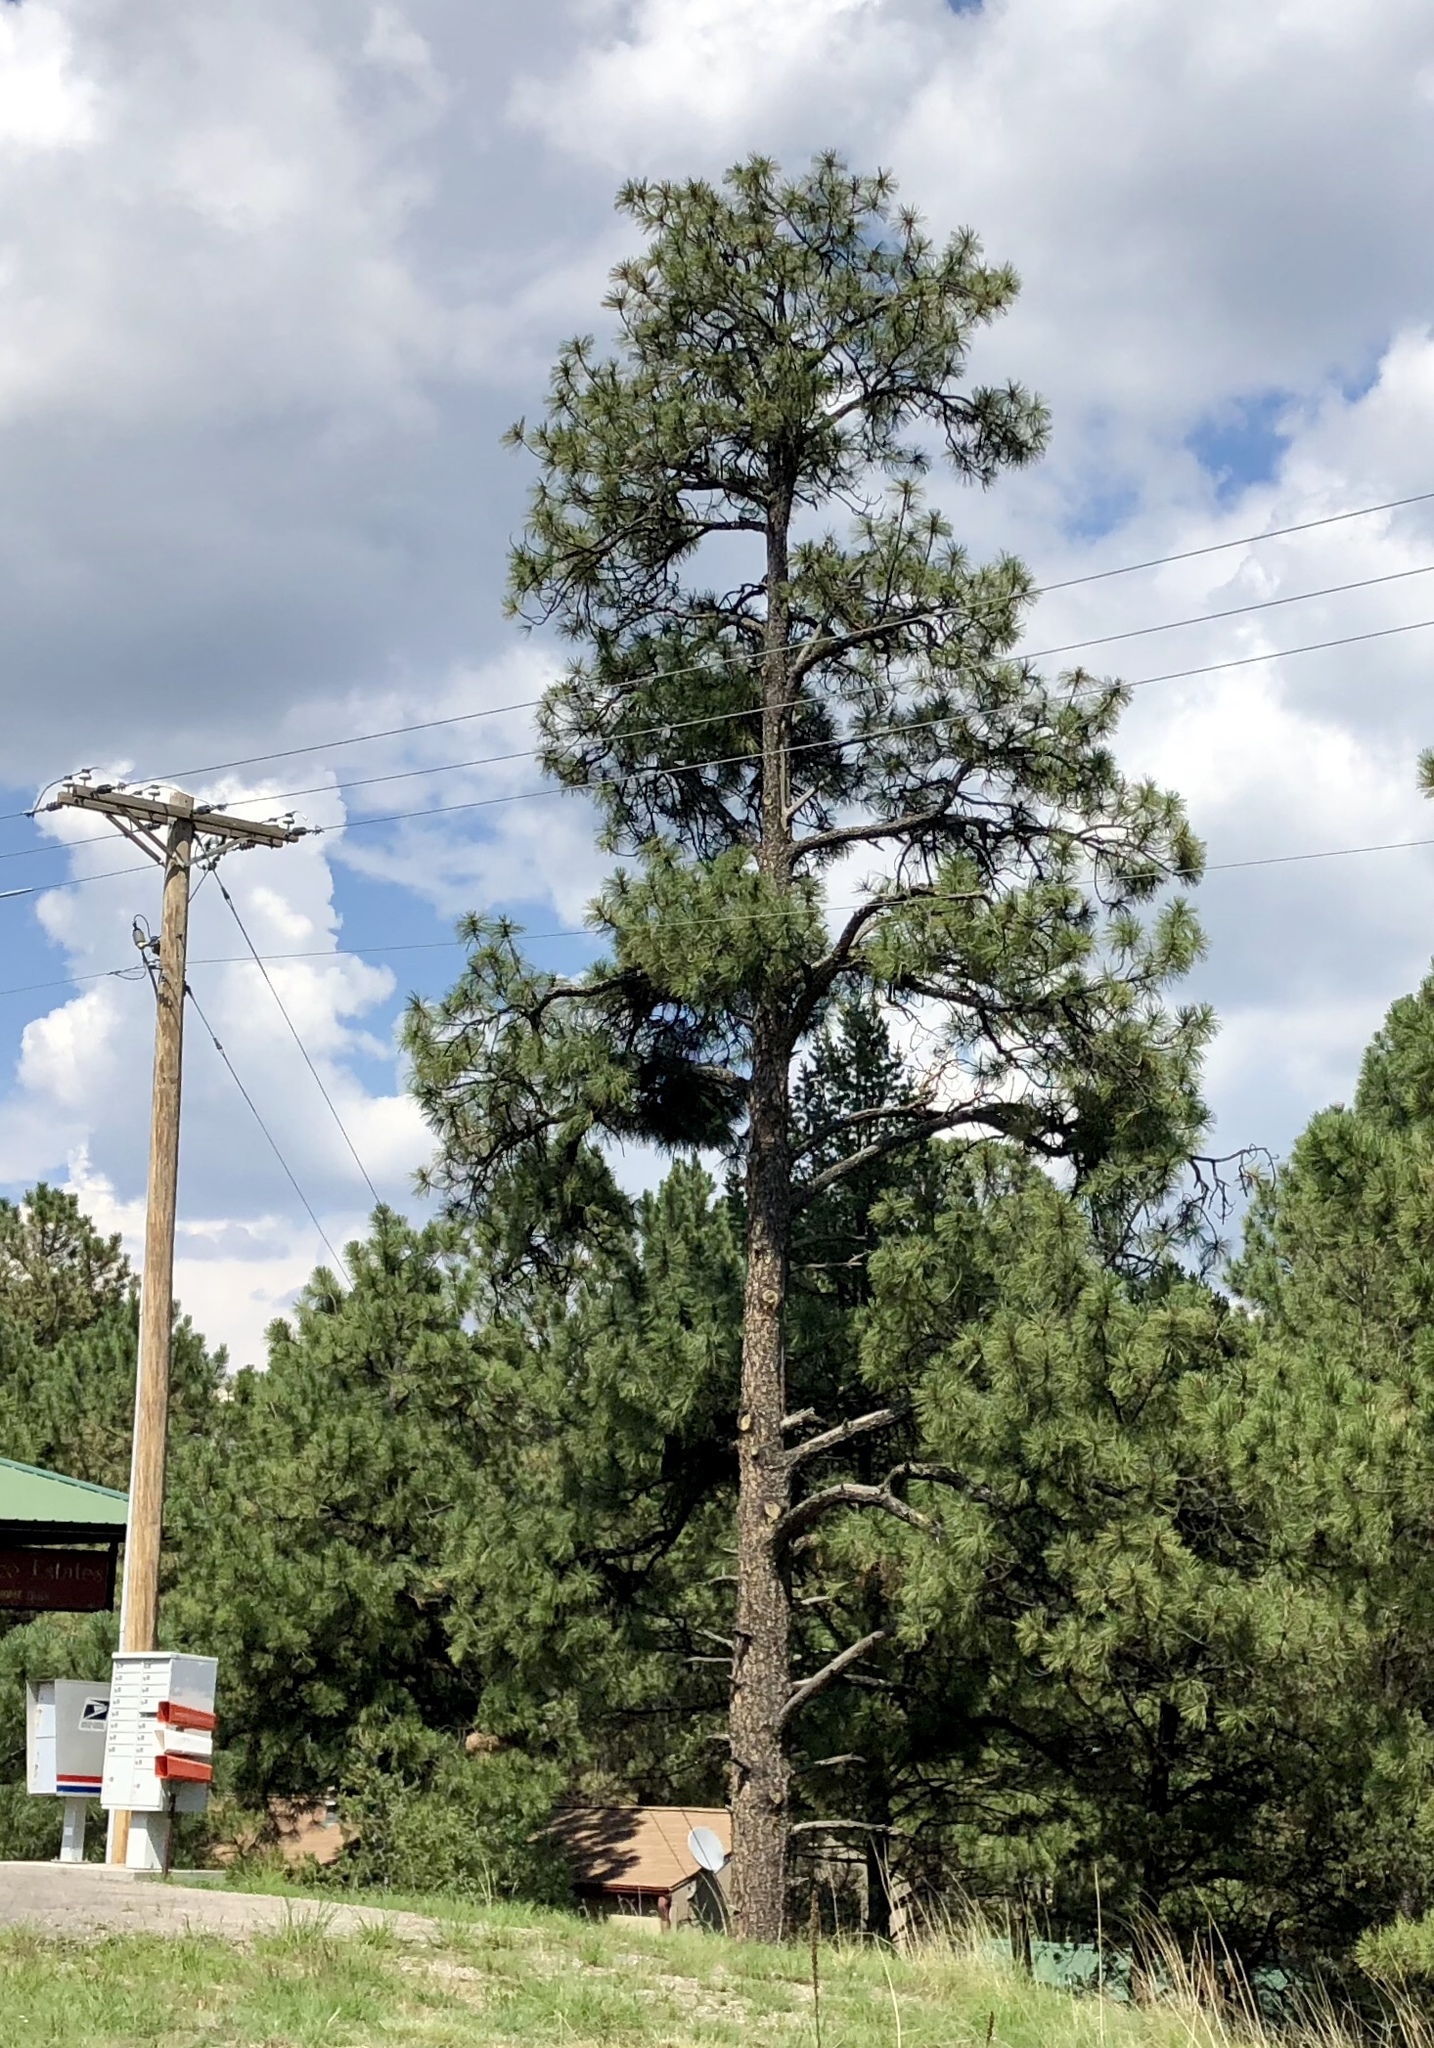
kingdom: Plantae
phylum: Tracheophyta
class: Pinopsida
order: Pinales
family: Pinaceae
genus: Pinus
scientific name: Pinus ponderosa
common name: Western yellow-pine
